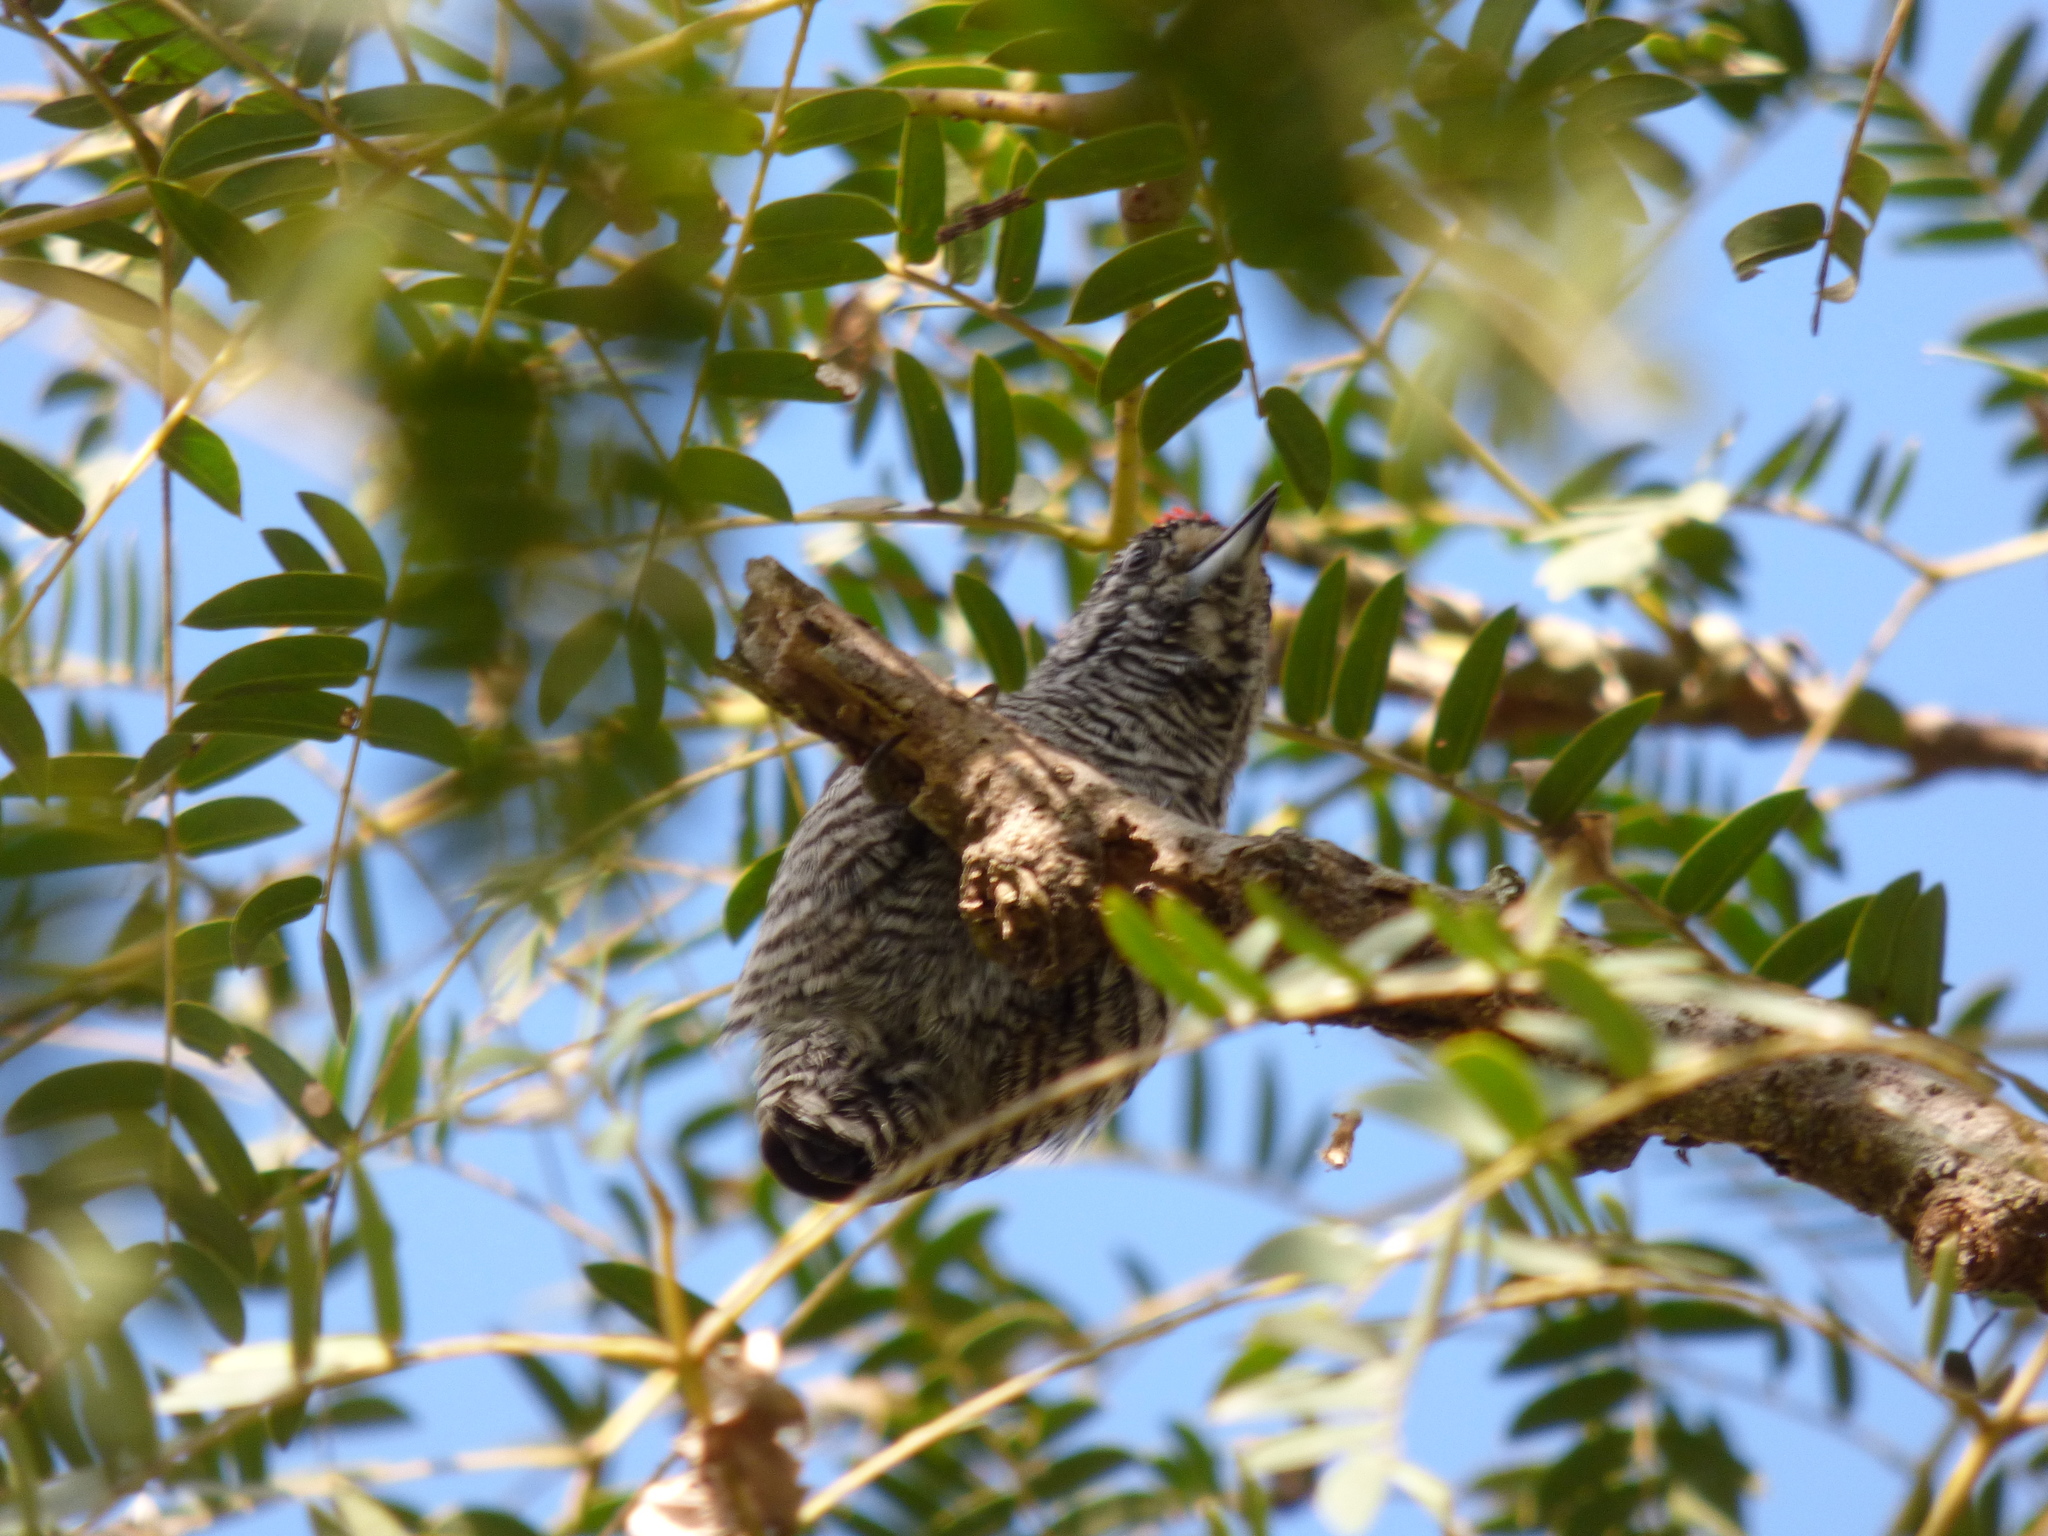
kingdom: Animalia
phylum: Chordata
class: Aves
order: Piciformes
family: Picidae
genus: Picumnus
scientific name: Picumnus cirratus
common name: White-barred piculet
